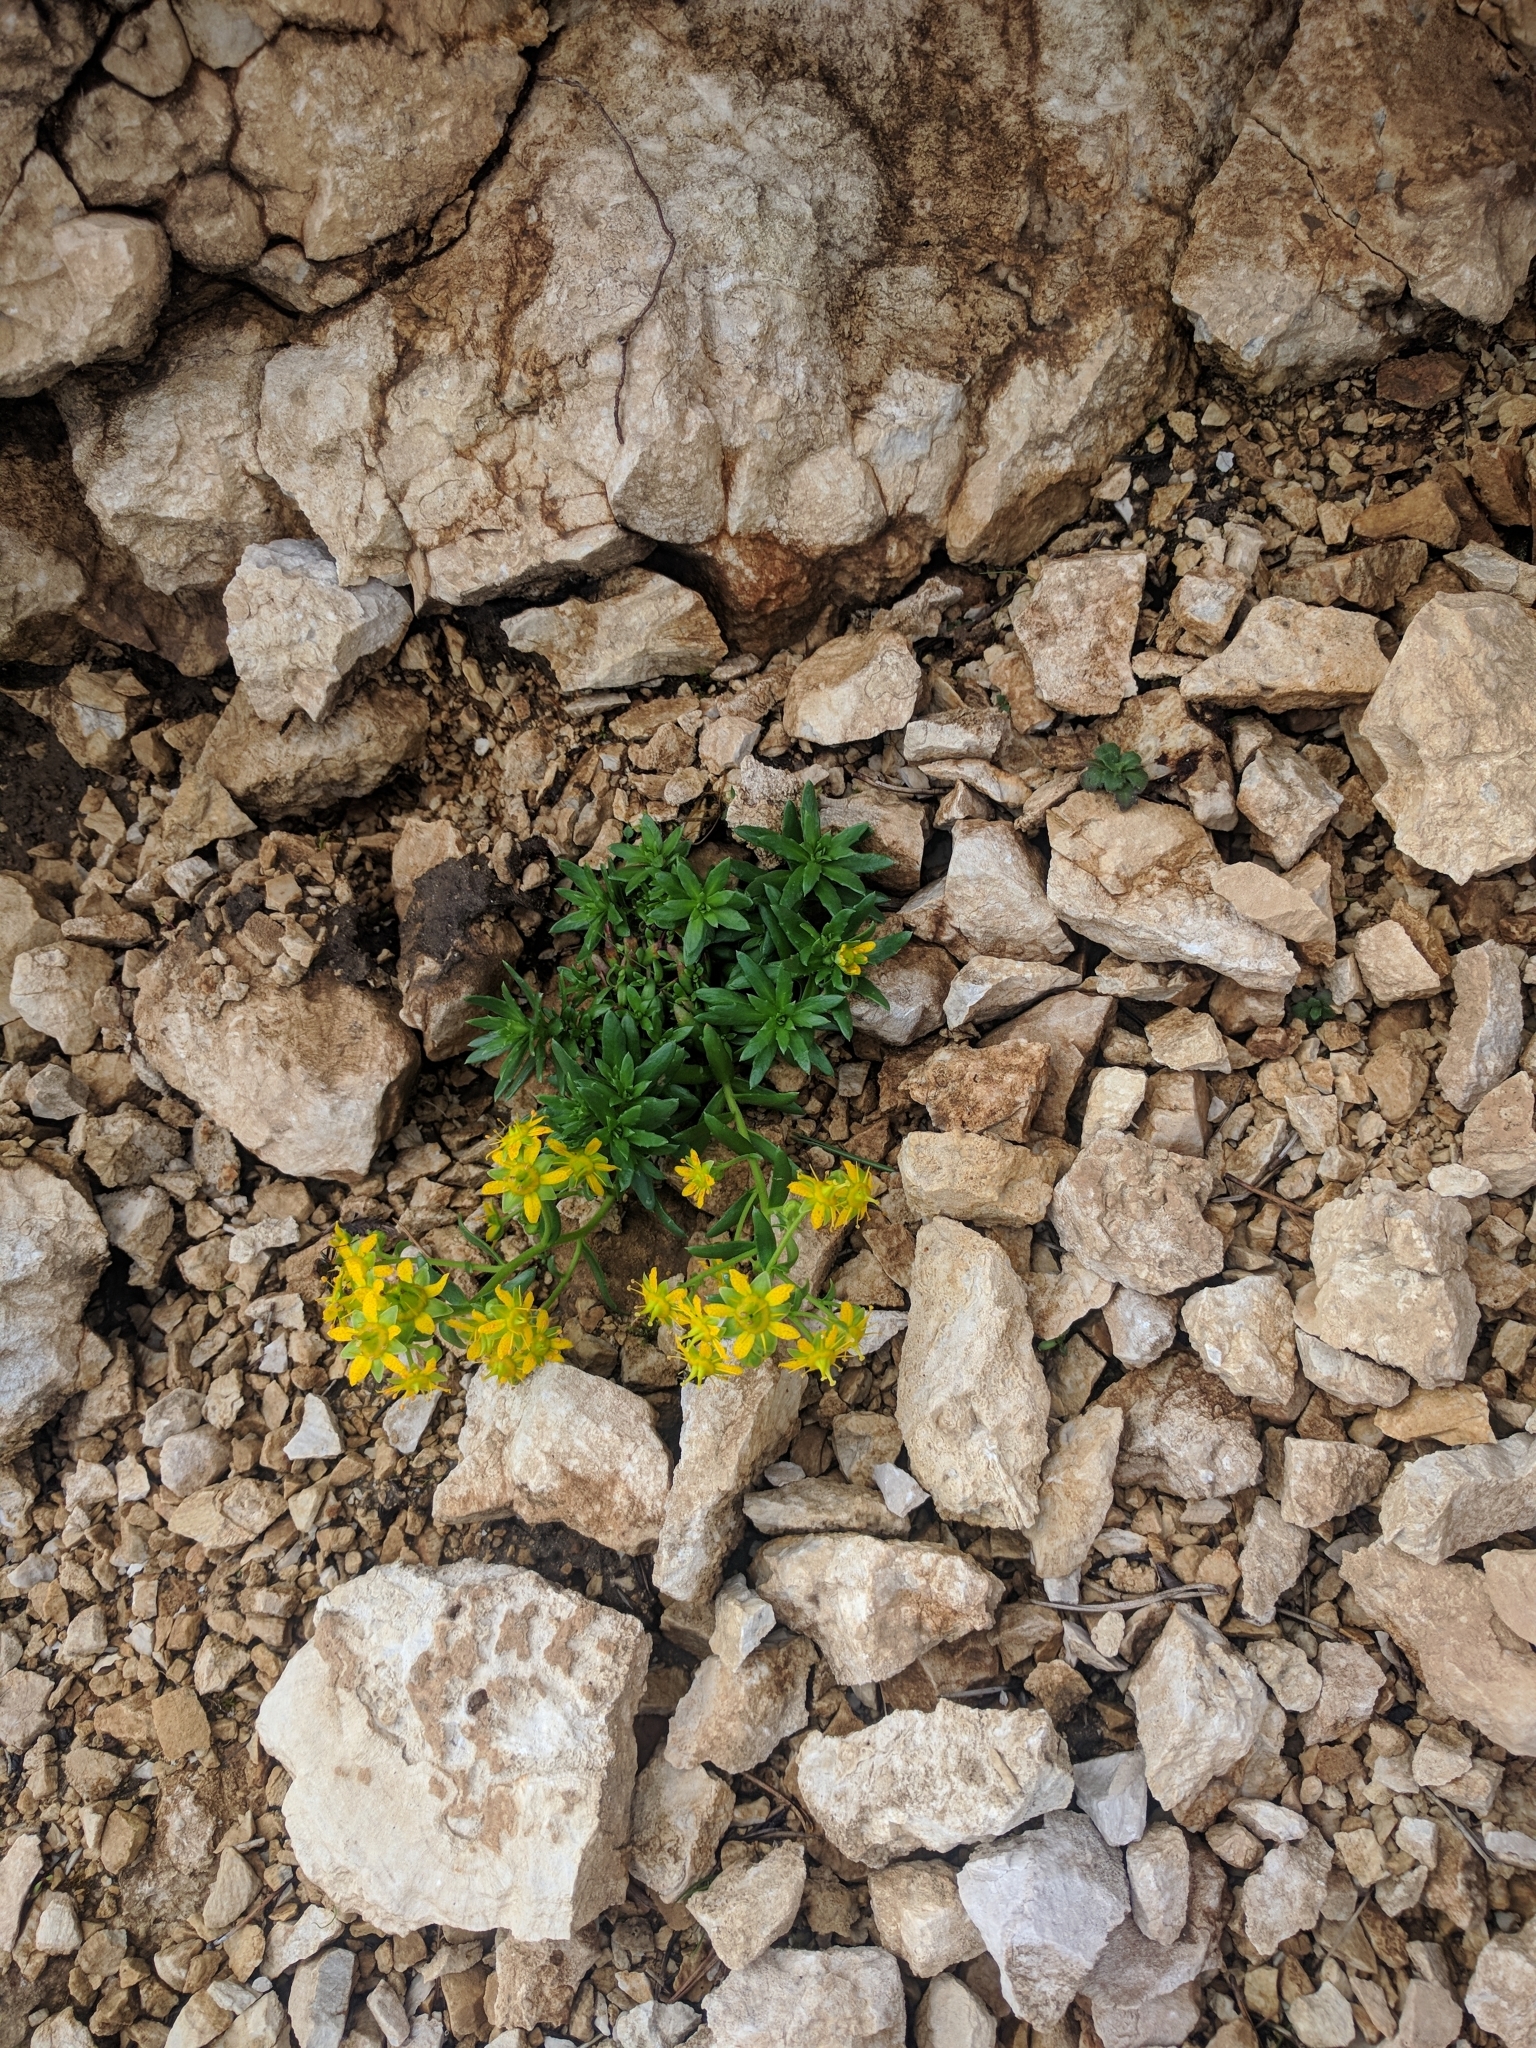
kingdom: Plantae
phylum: Tracheophyta
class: Magnoliopsida
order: Saxifragales
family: Saxifragaceae
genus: Saxifraga
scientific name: Saxifraga aizoides
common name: Yellow mountain saxifrage
